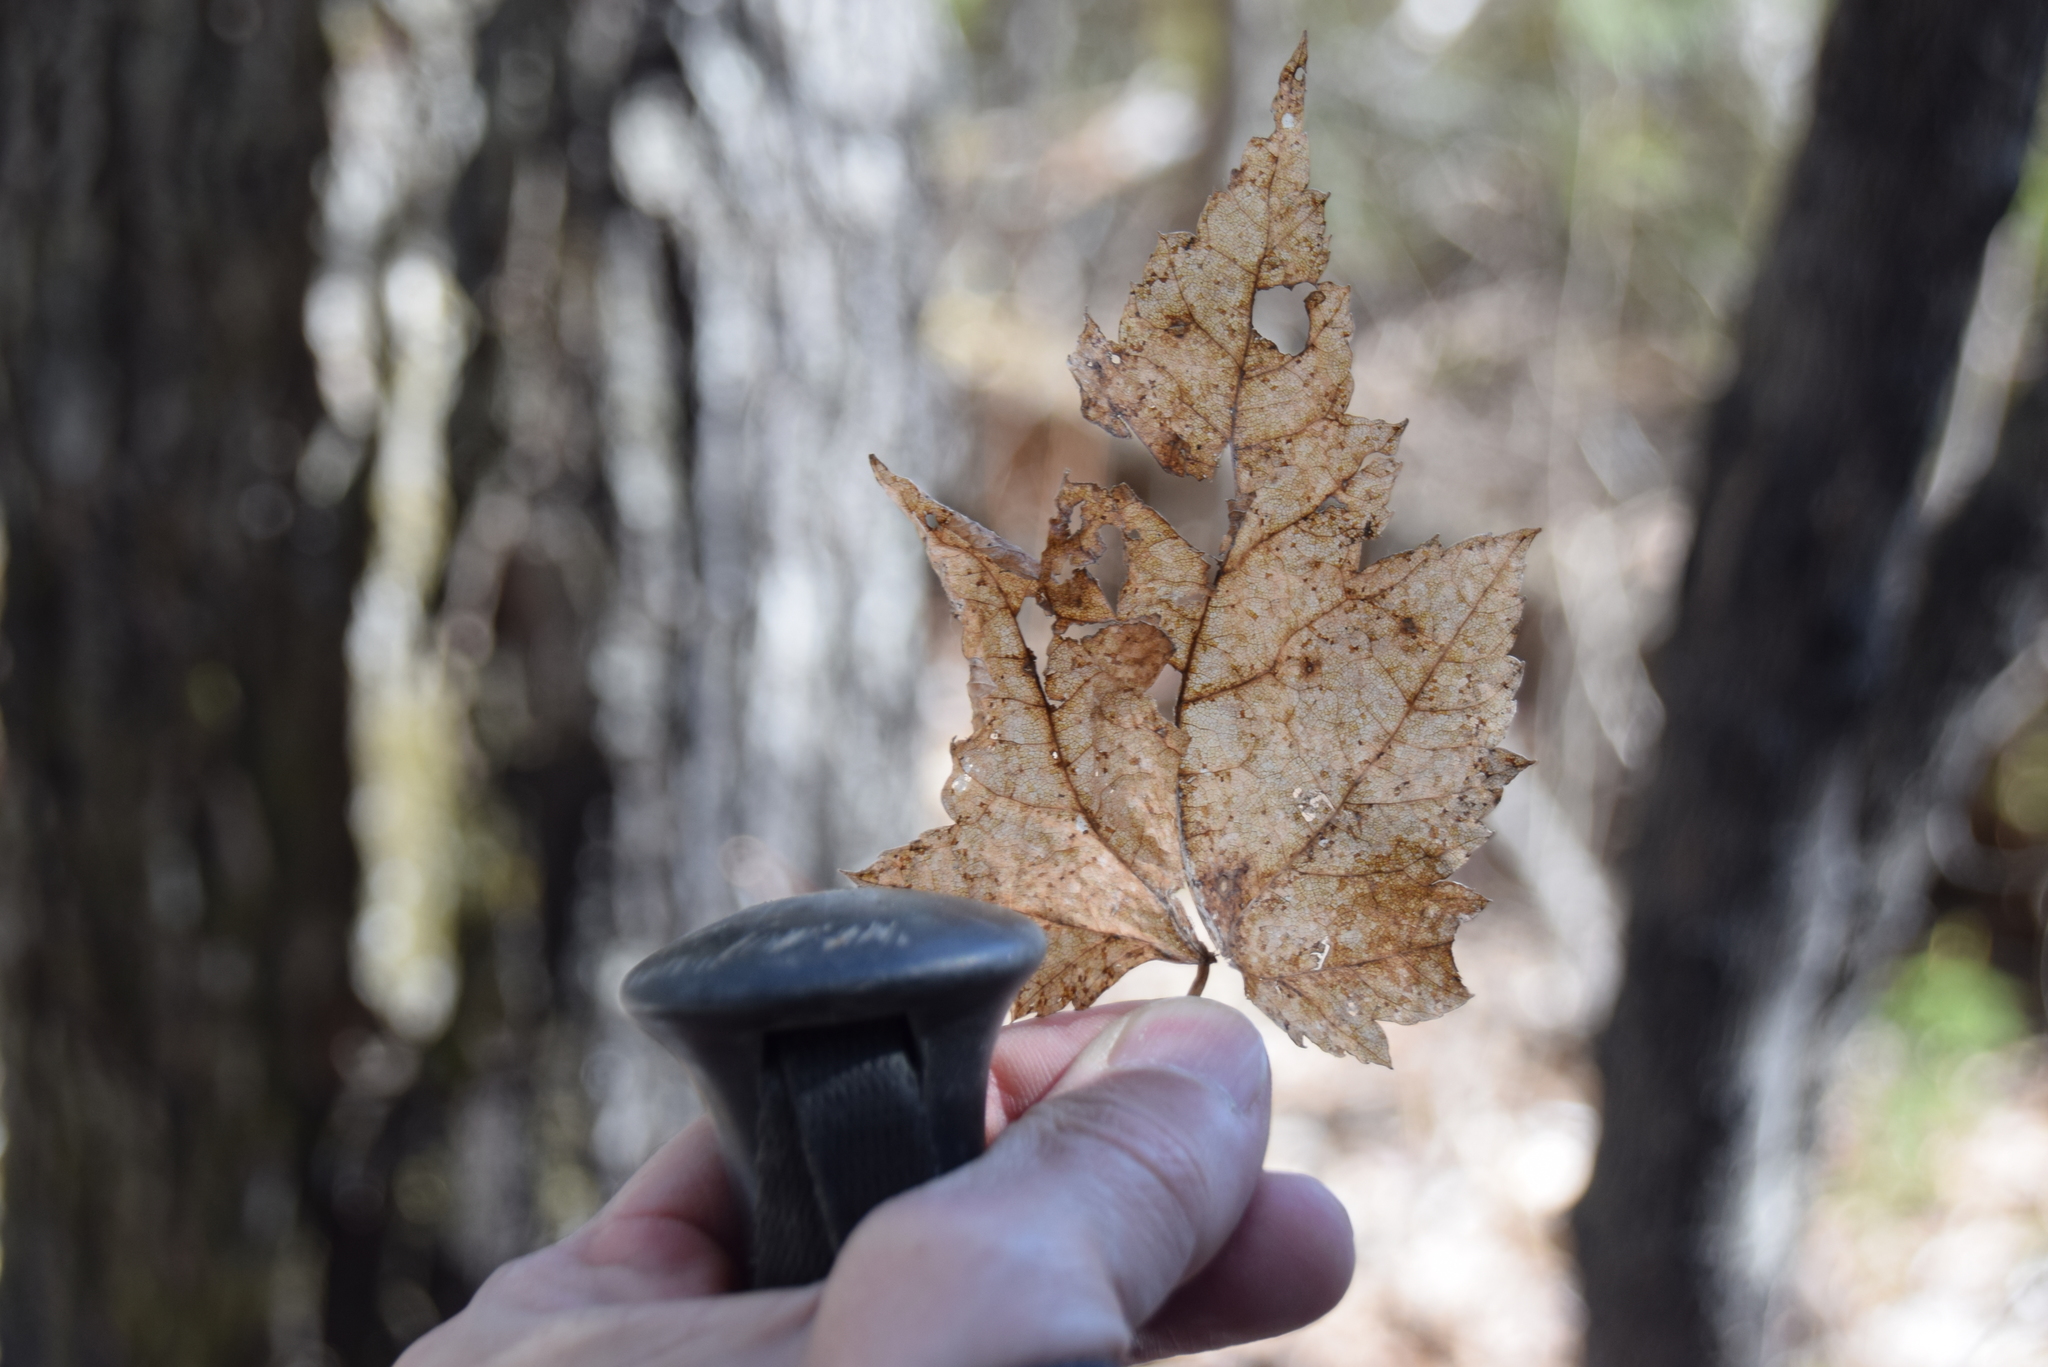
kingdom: Plantae
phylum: Tracheophyta
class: Magnoliopsida
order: Sapindales
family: Sapindaceae
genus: Acer
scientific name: Acer rubrum
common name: Red maple
